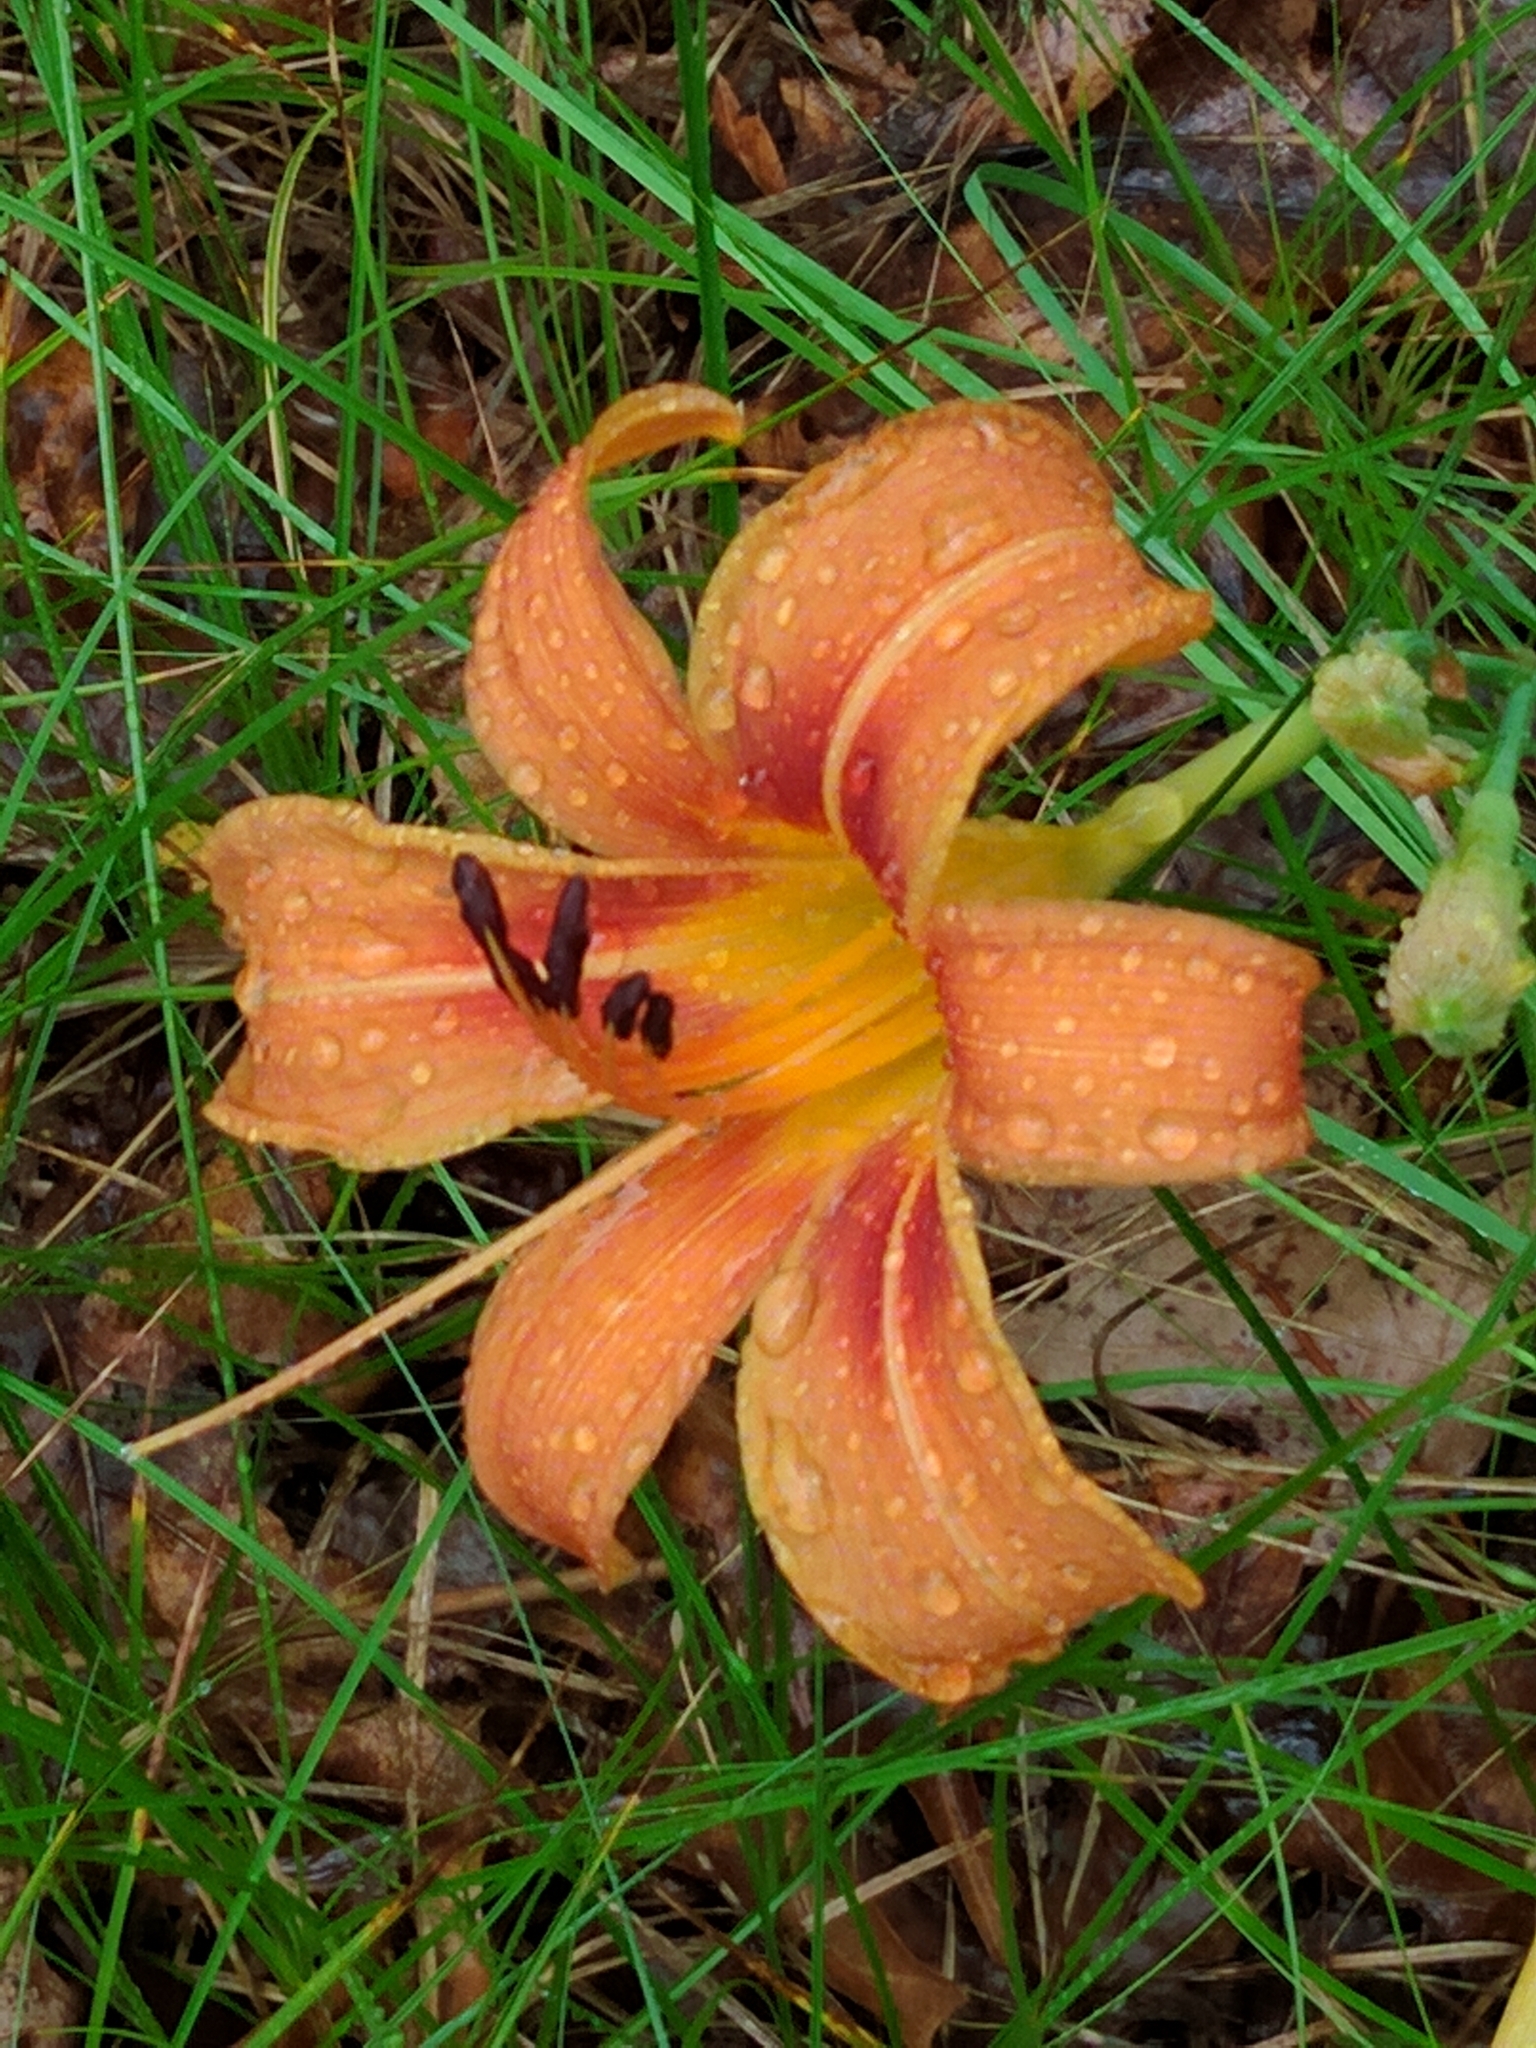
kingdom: Plantae
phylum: Tracheophyta
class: Liliopsida
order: Asparagales
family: Asphodelaceae
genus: Hemerocallis
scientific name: Hemerocallis fulva
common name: Orange day-lily
